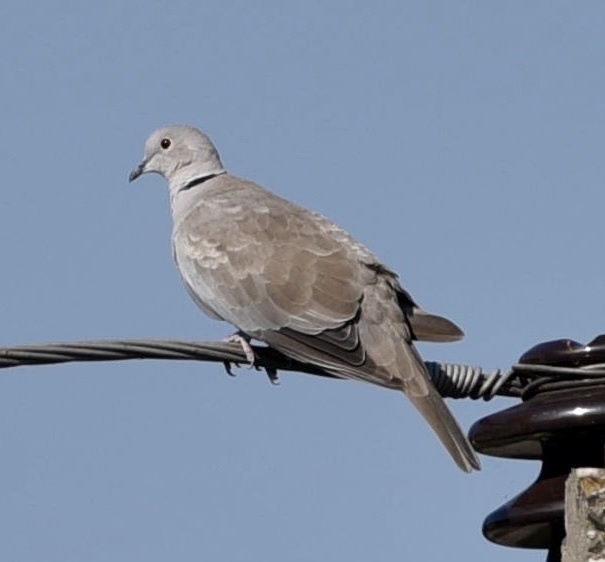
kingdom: Animalia
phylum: Chordata
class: Aves
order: Columbiformes
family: Columbidae
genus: Streptopelia
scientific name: Streptopelia decaocto
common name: Eurasian collared dove
